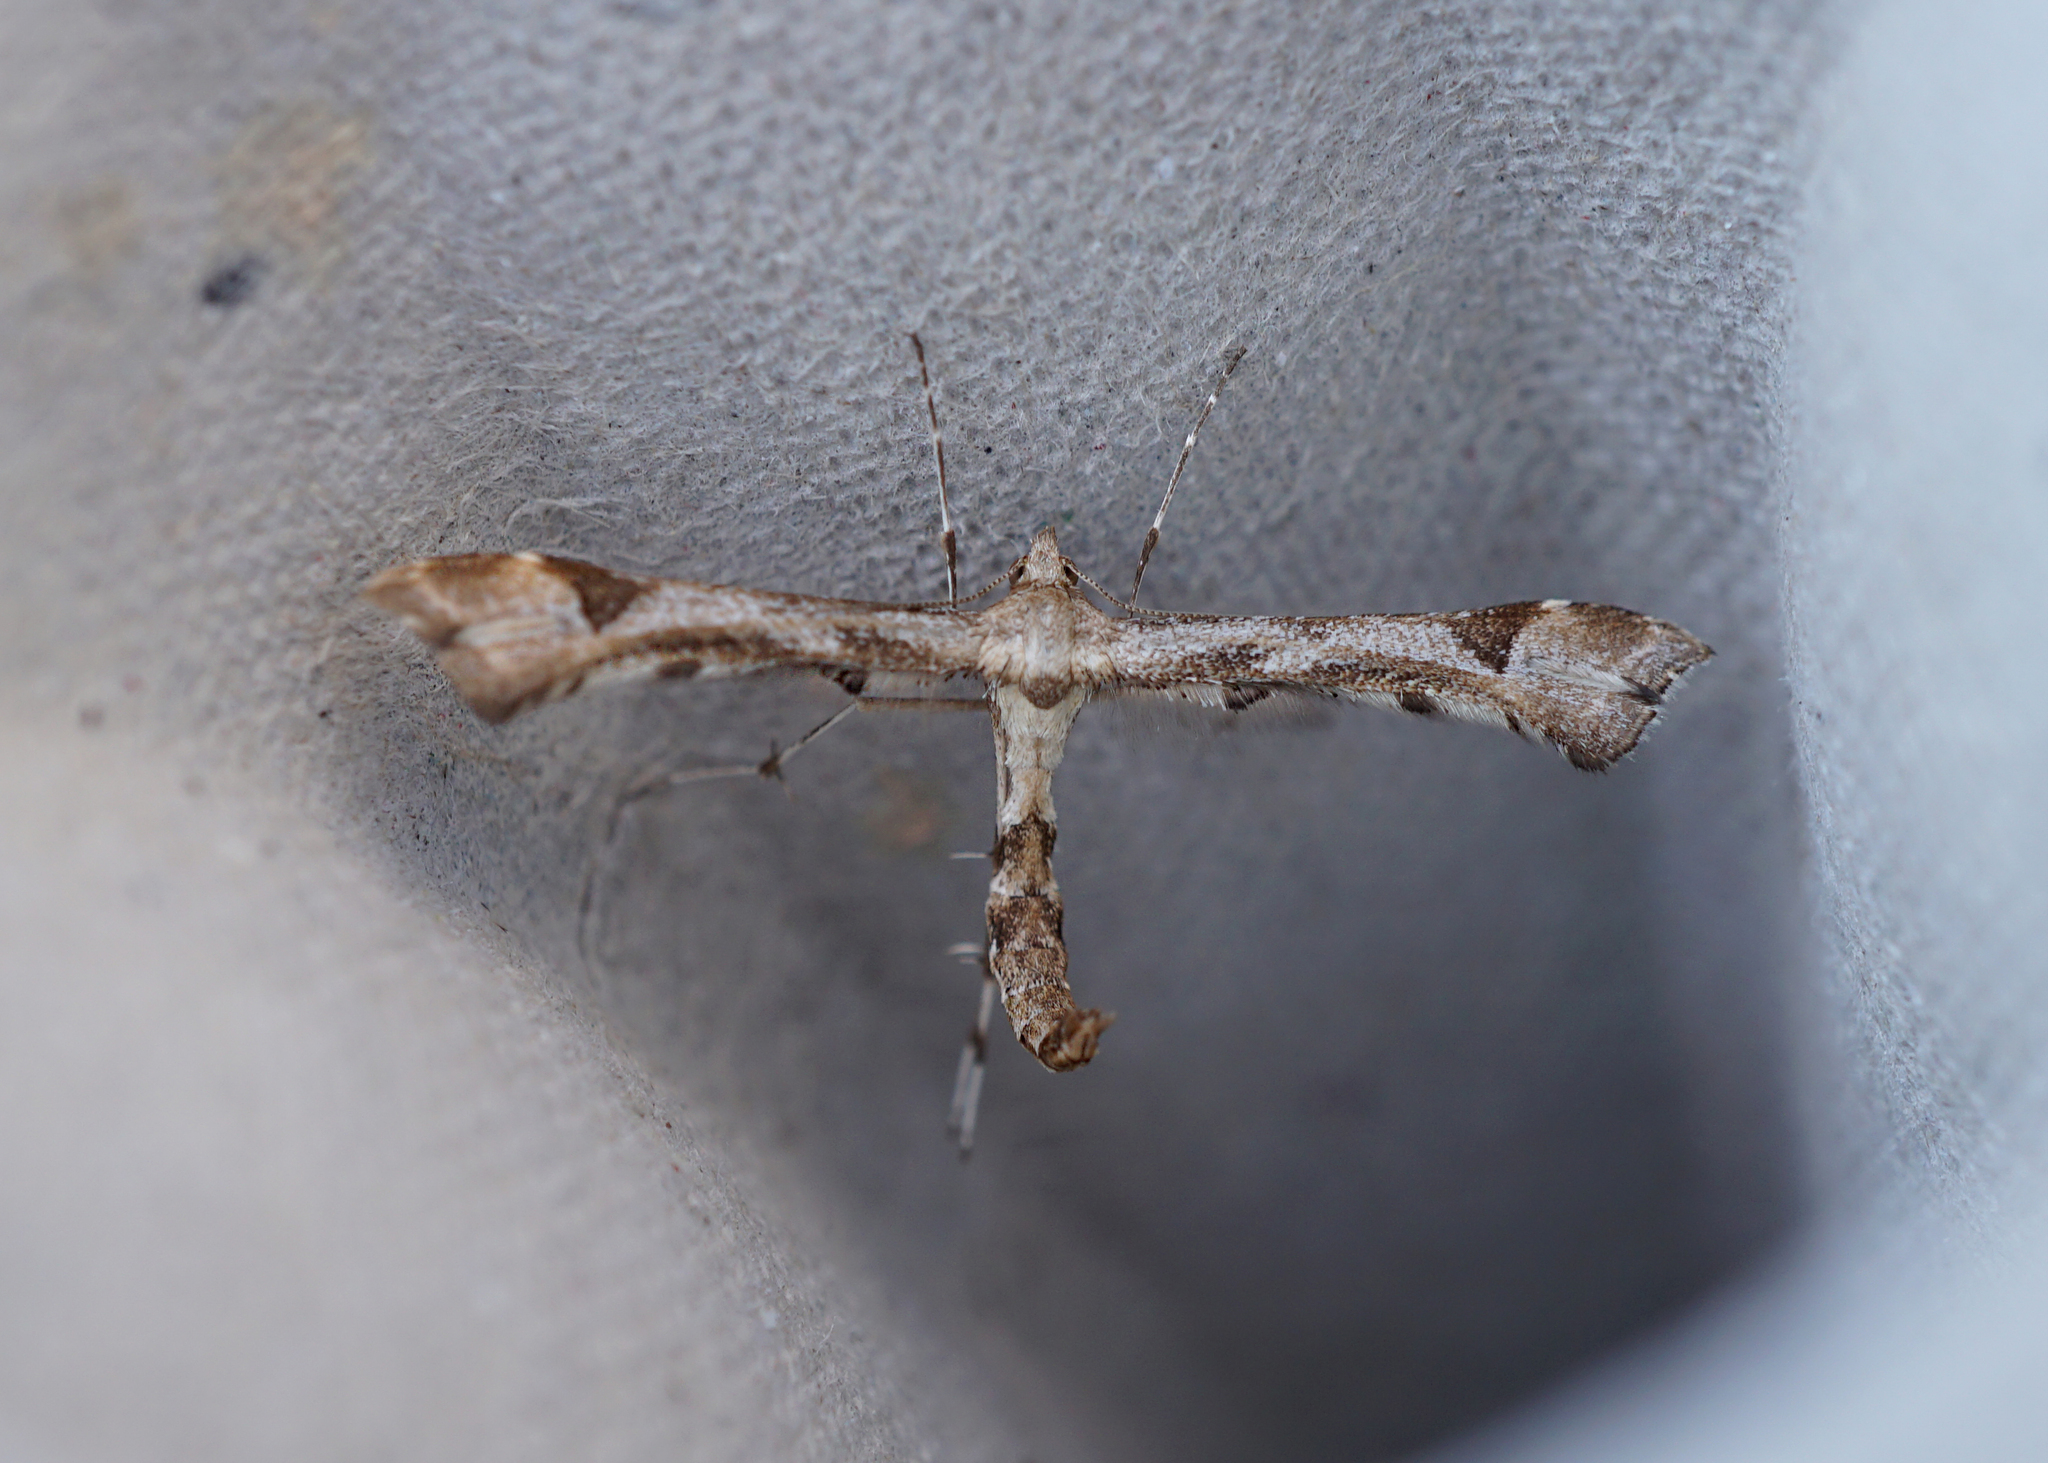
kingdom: Animalia
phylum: Arthropoda
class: Insecta
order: Lepidoptera
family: Pterophoridae
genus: Platyptilia
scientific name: Platyptilia gonodactyla
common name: Triangle plume
